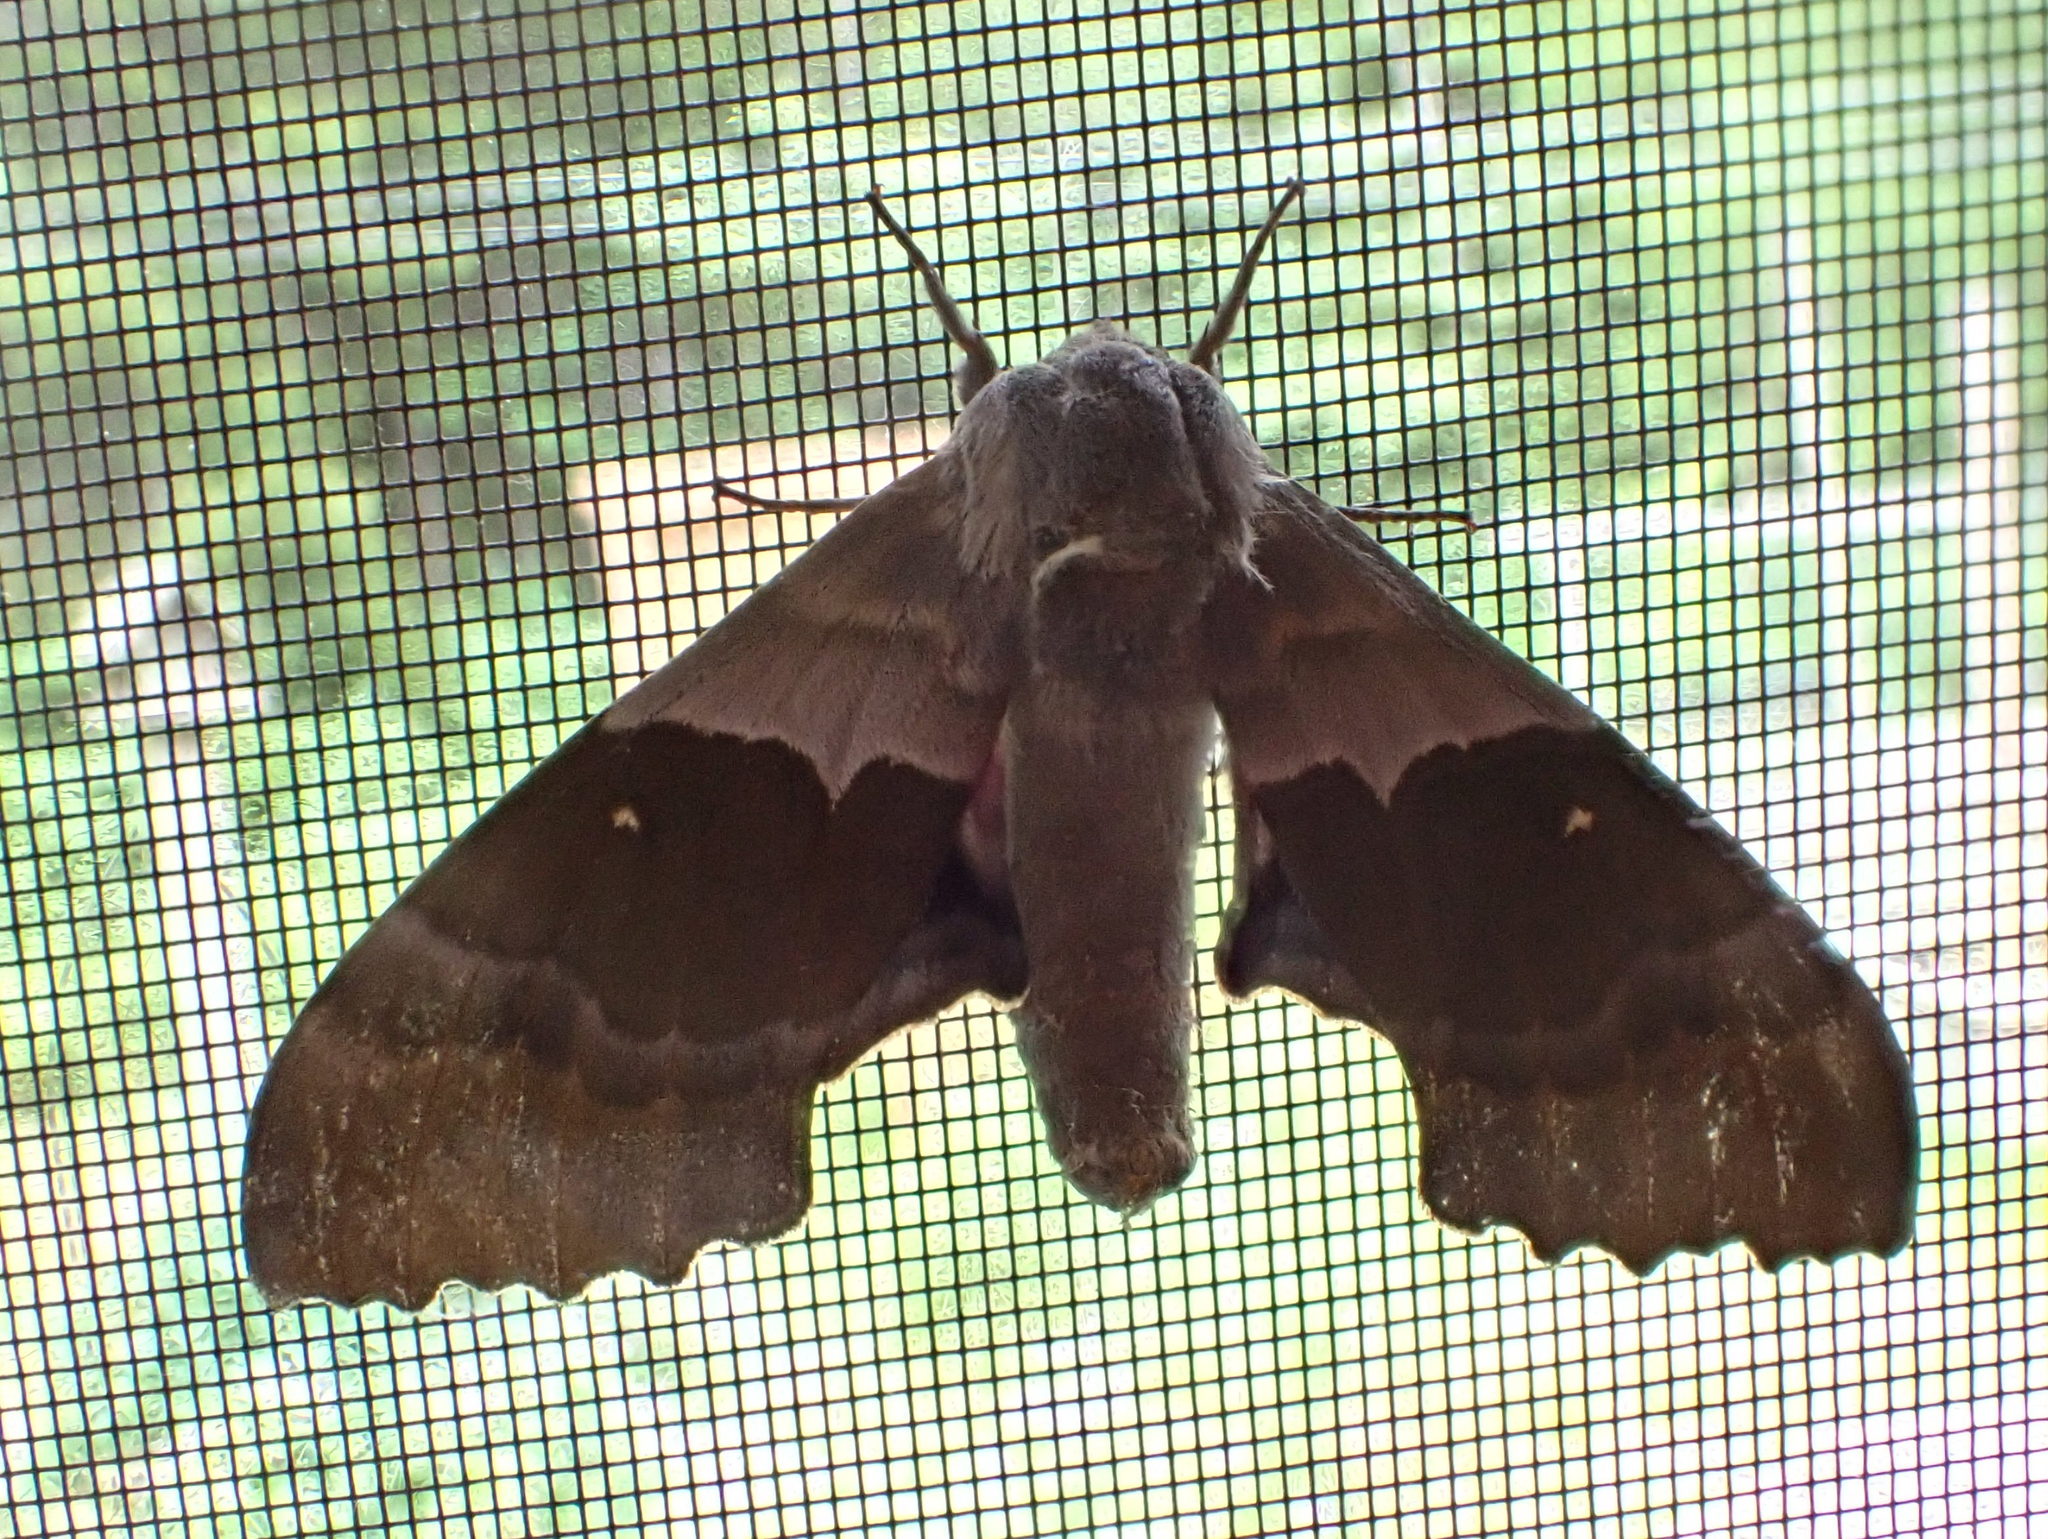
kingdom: Animalia
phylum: Arthropoda
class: Insecta
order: Lepidoptera
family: Sphingidae
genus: Pachysphinx
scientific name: Pachysphinx modesta
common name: Big poplar sphinx
